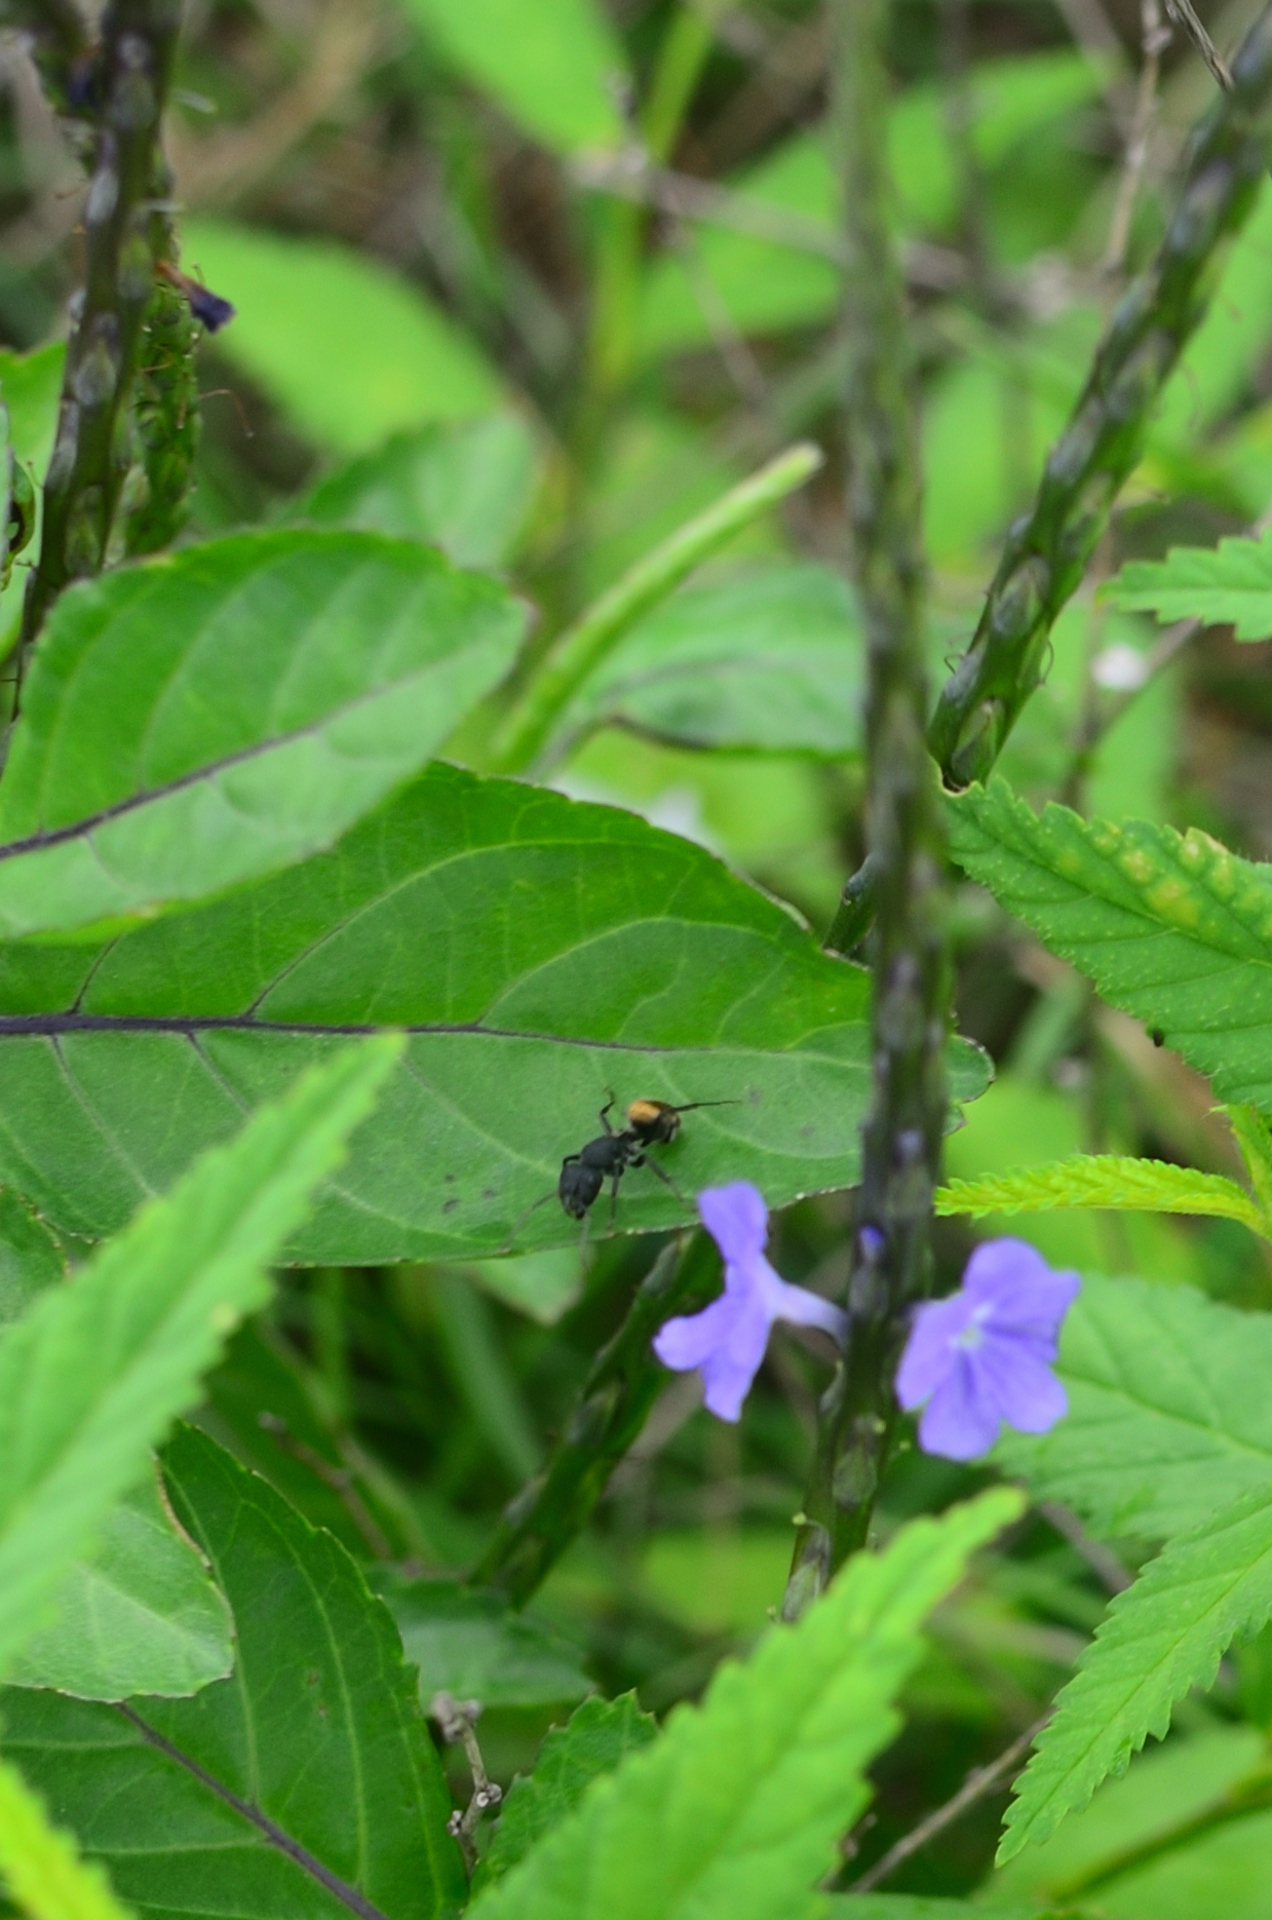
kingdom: Animalia
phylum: Arthropoda
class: Insecta
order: Hymenoptera
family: Formicidae
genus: Camponotus
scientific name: Camponotus sericeus
